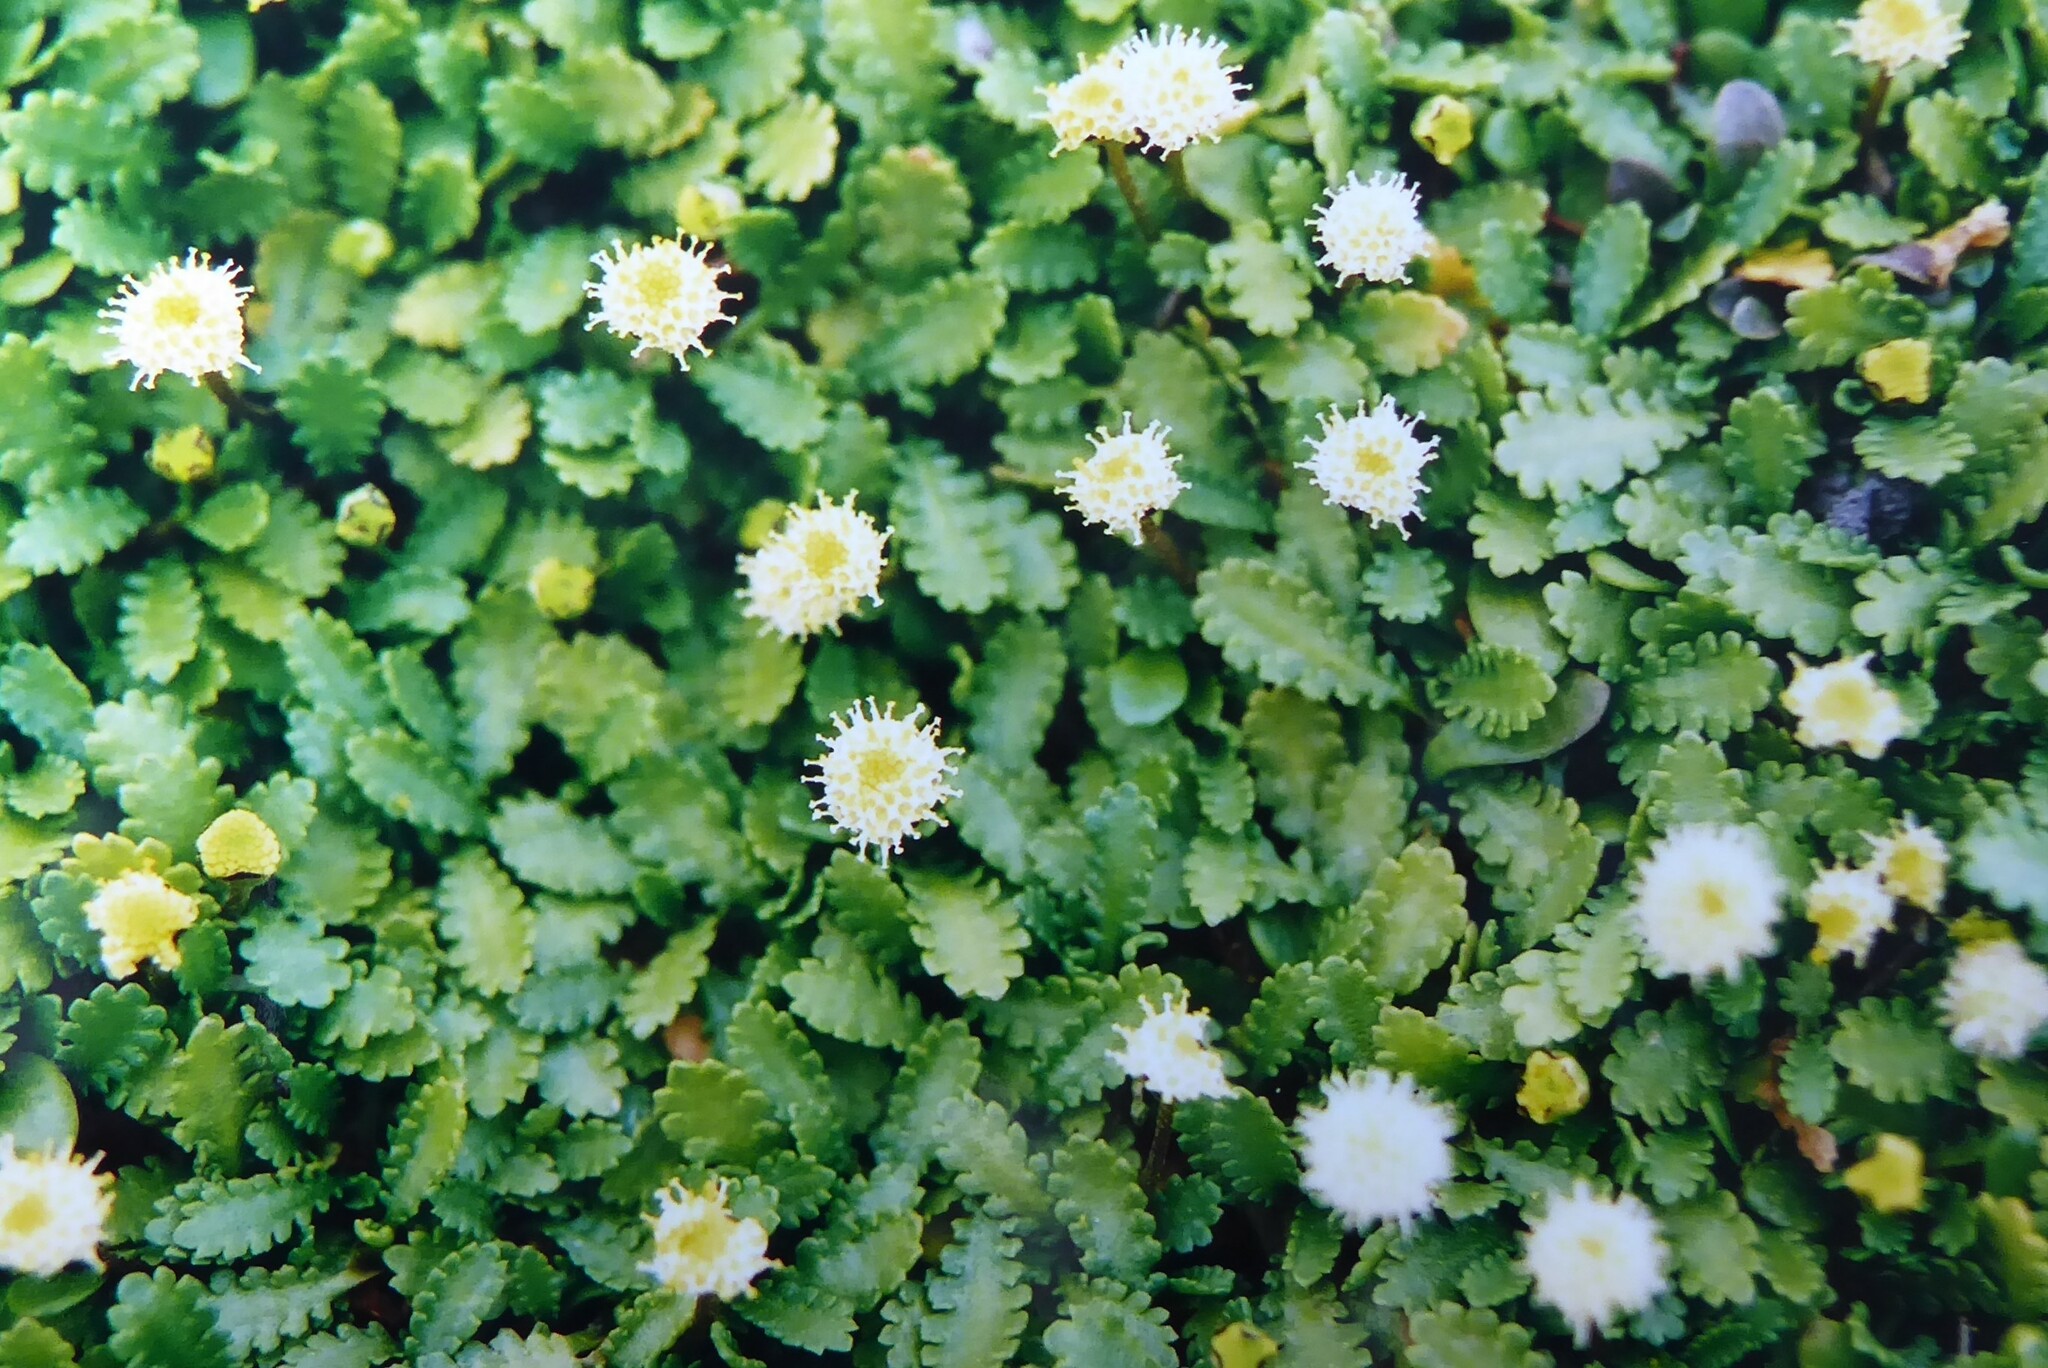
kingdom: Plantae
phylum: Tracheophyta
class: Magnoliopsida
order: Asterales
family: Asteraceae
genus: Leptinella
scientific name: Leptinella dioica
